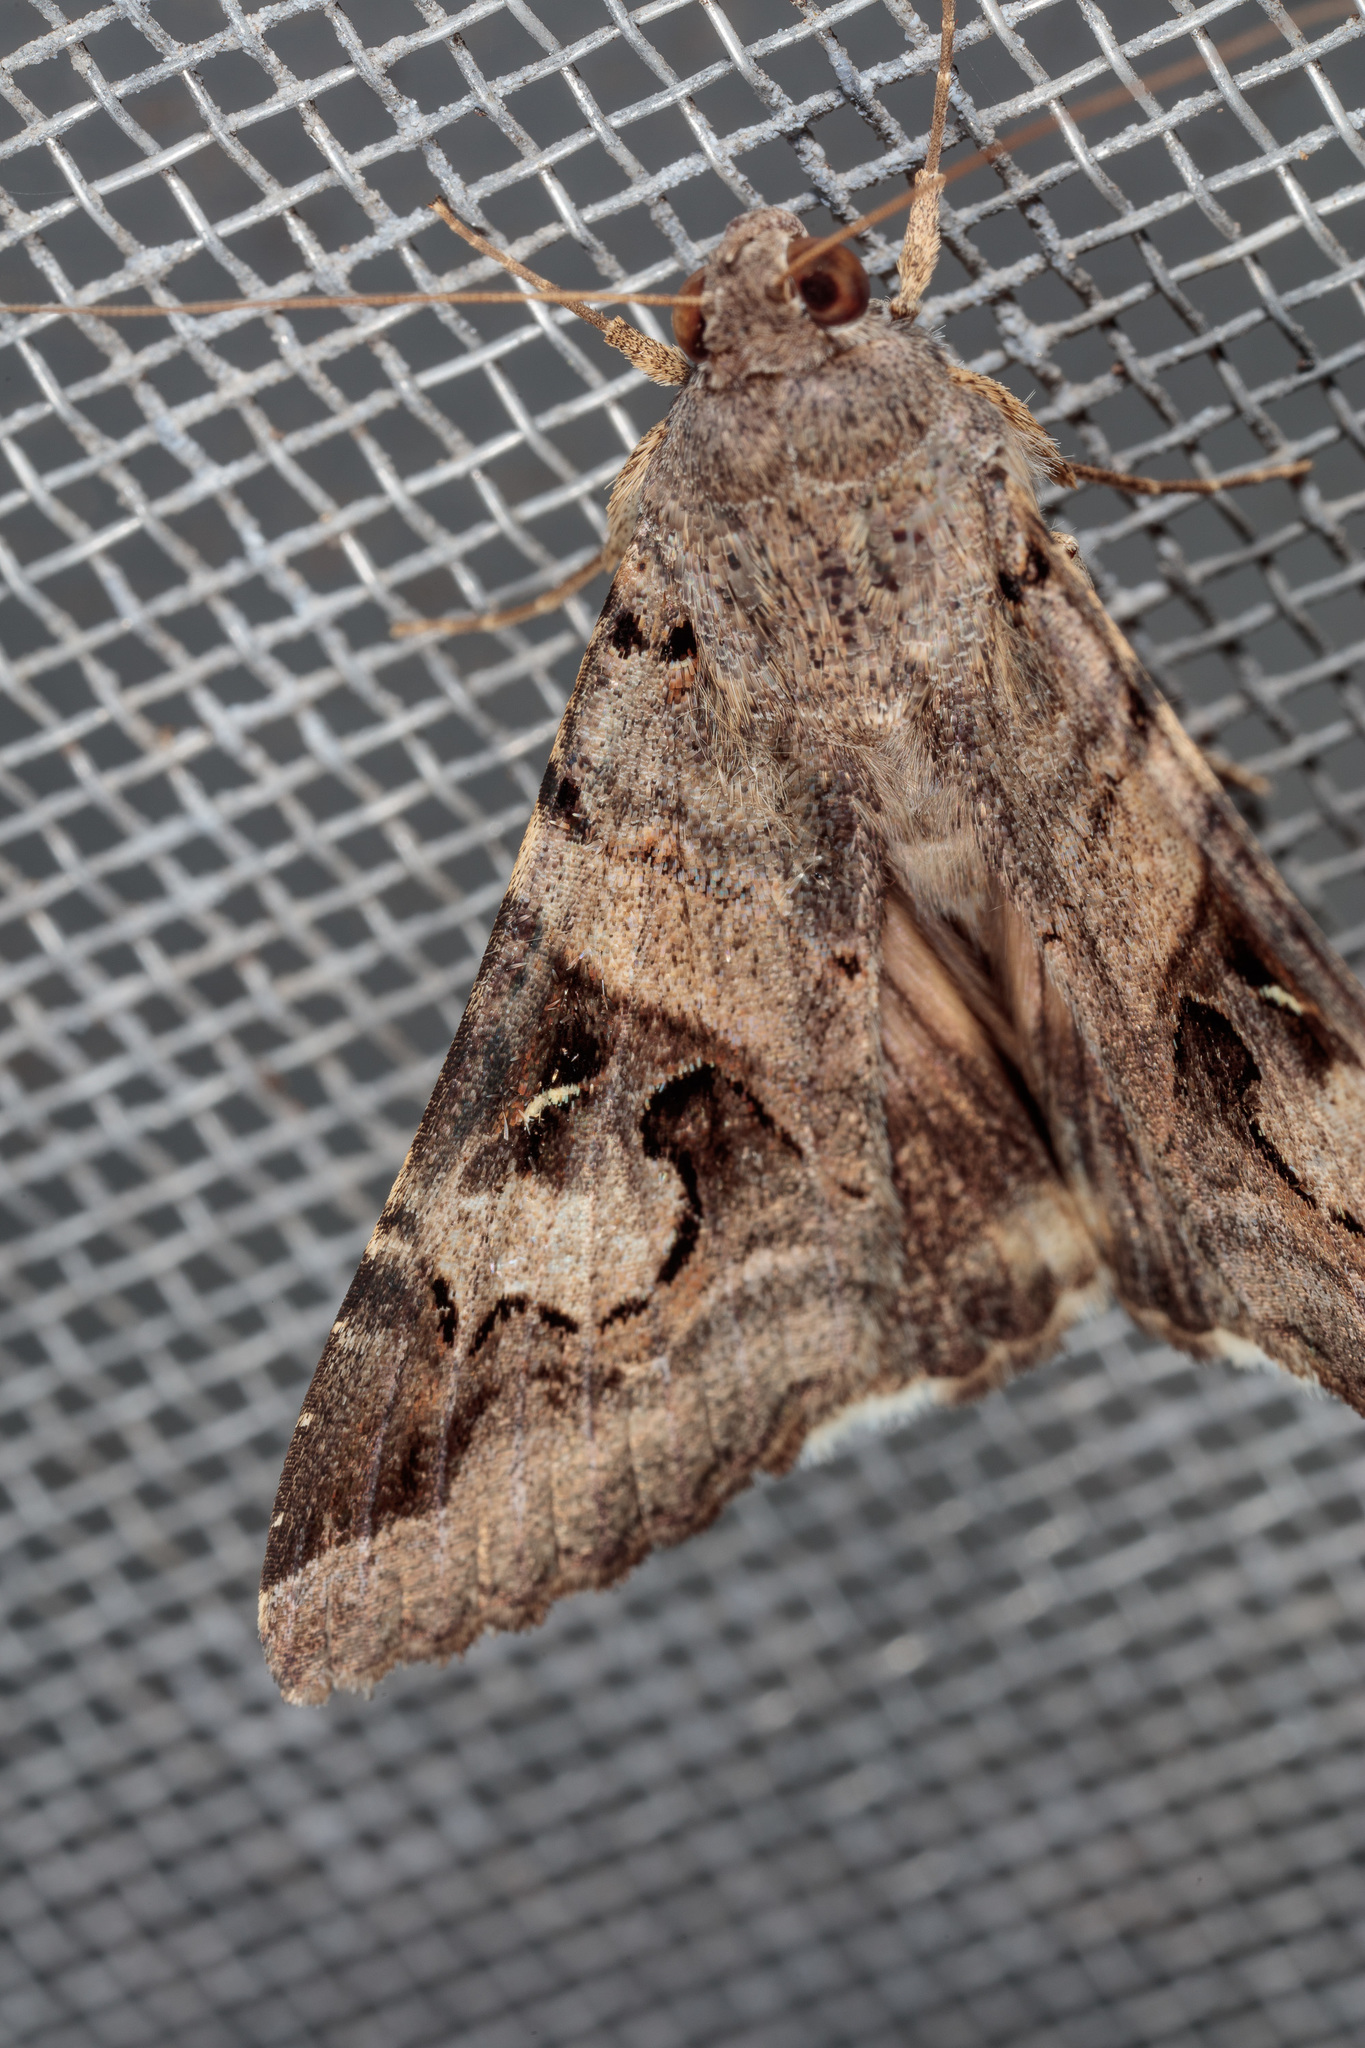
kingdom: Animalia
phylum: Arthropoda
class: Insecta
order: Lepidoptera
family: Erebidae
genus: Melipotis
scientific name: Melipotis indomita
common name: Moth
